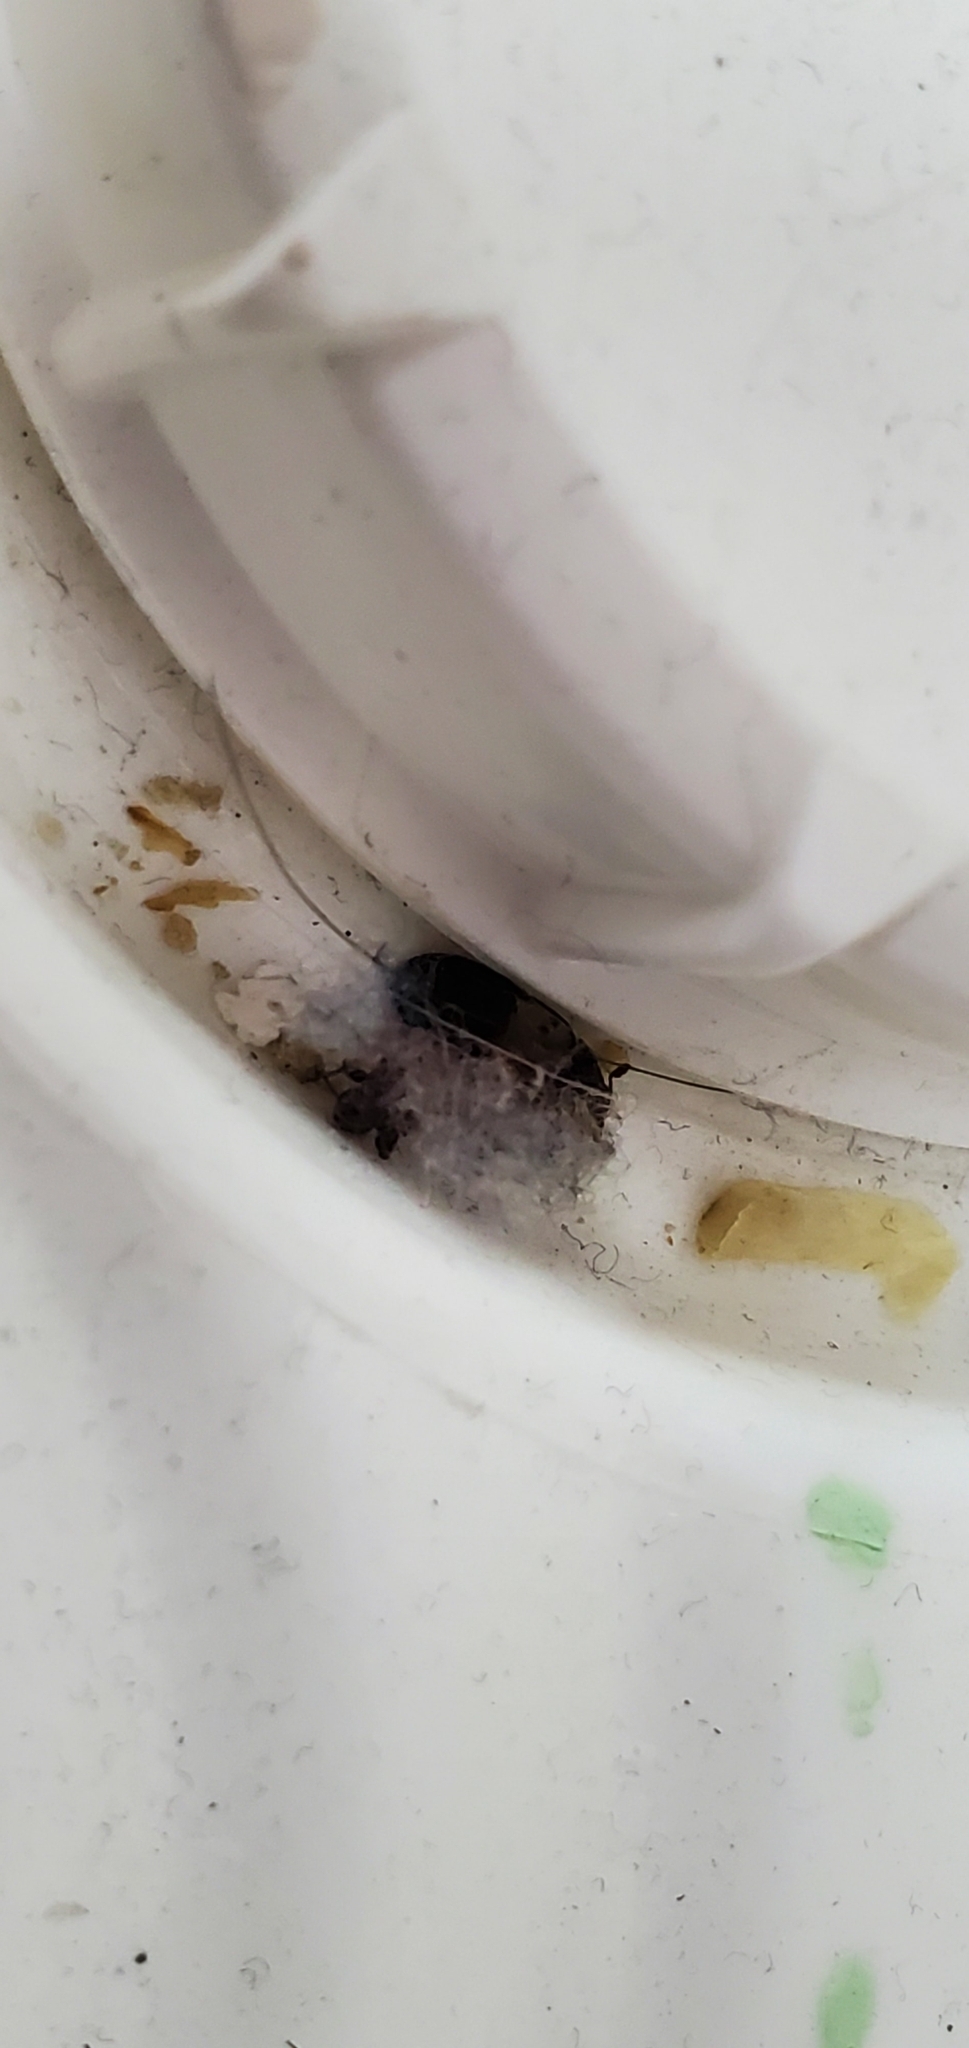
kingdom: Animalia
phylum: Arthropoda
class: Insecta
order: Coleoptera
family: Dermestidae
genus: Dermestes
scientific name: Dermestes lardarius
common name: Larder beetle
